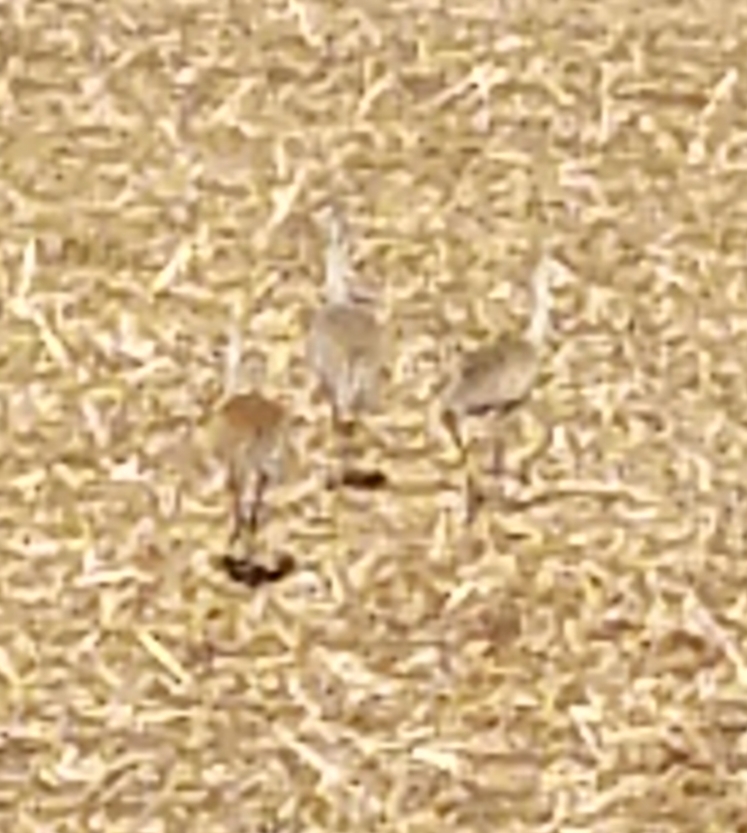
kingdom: Animalia
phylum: Chordata
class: Aves
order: Gruiformes
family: Gruidae
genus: Grus
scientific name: Grus canadensis
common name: Sandhill crane
